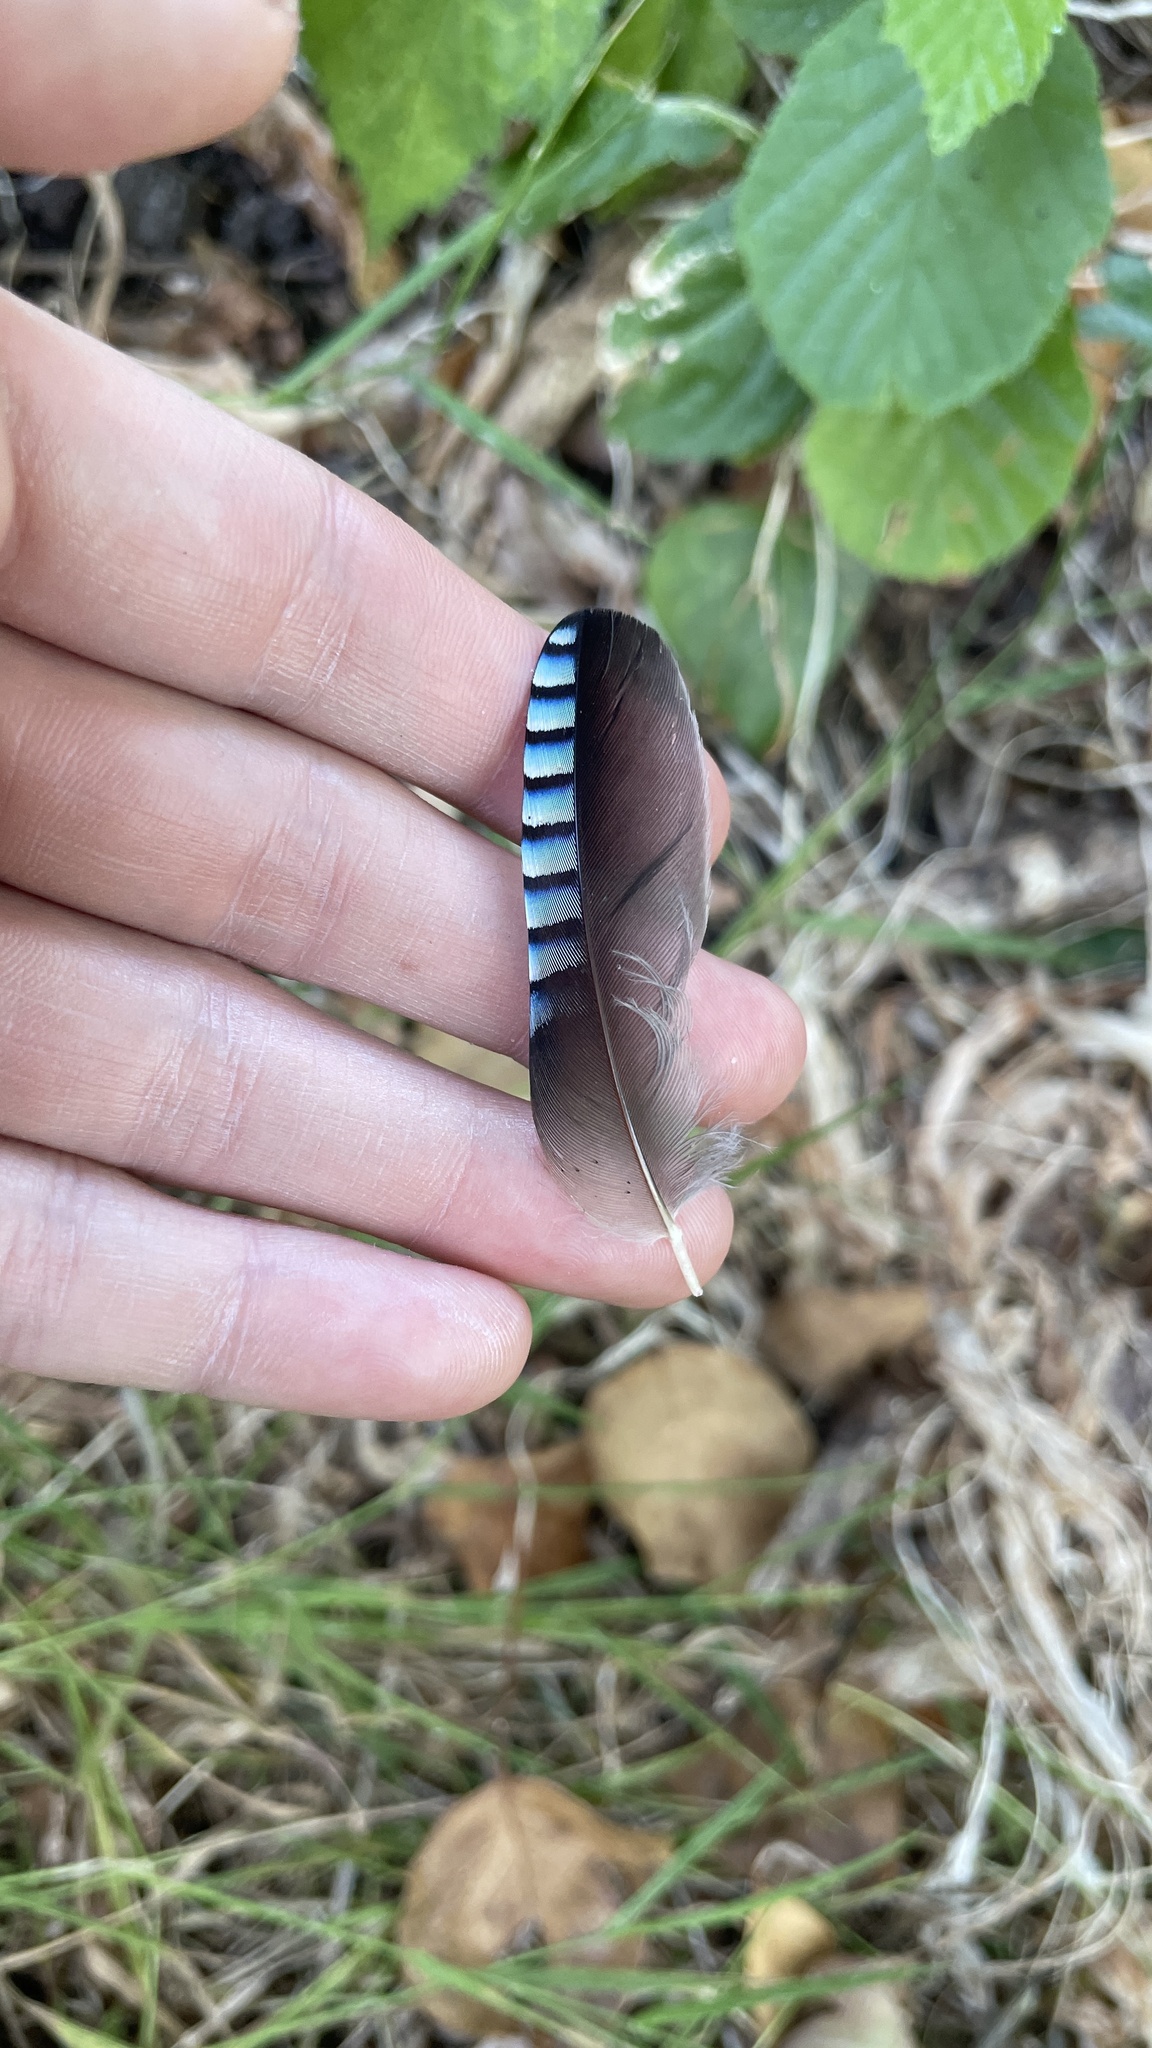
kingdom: Animalia
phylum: Chordata
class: Aves
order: Passeriformes
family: Corvidae
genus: Garrulus
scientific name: Garrulus glandarius
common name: Eurasian jay
